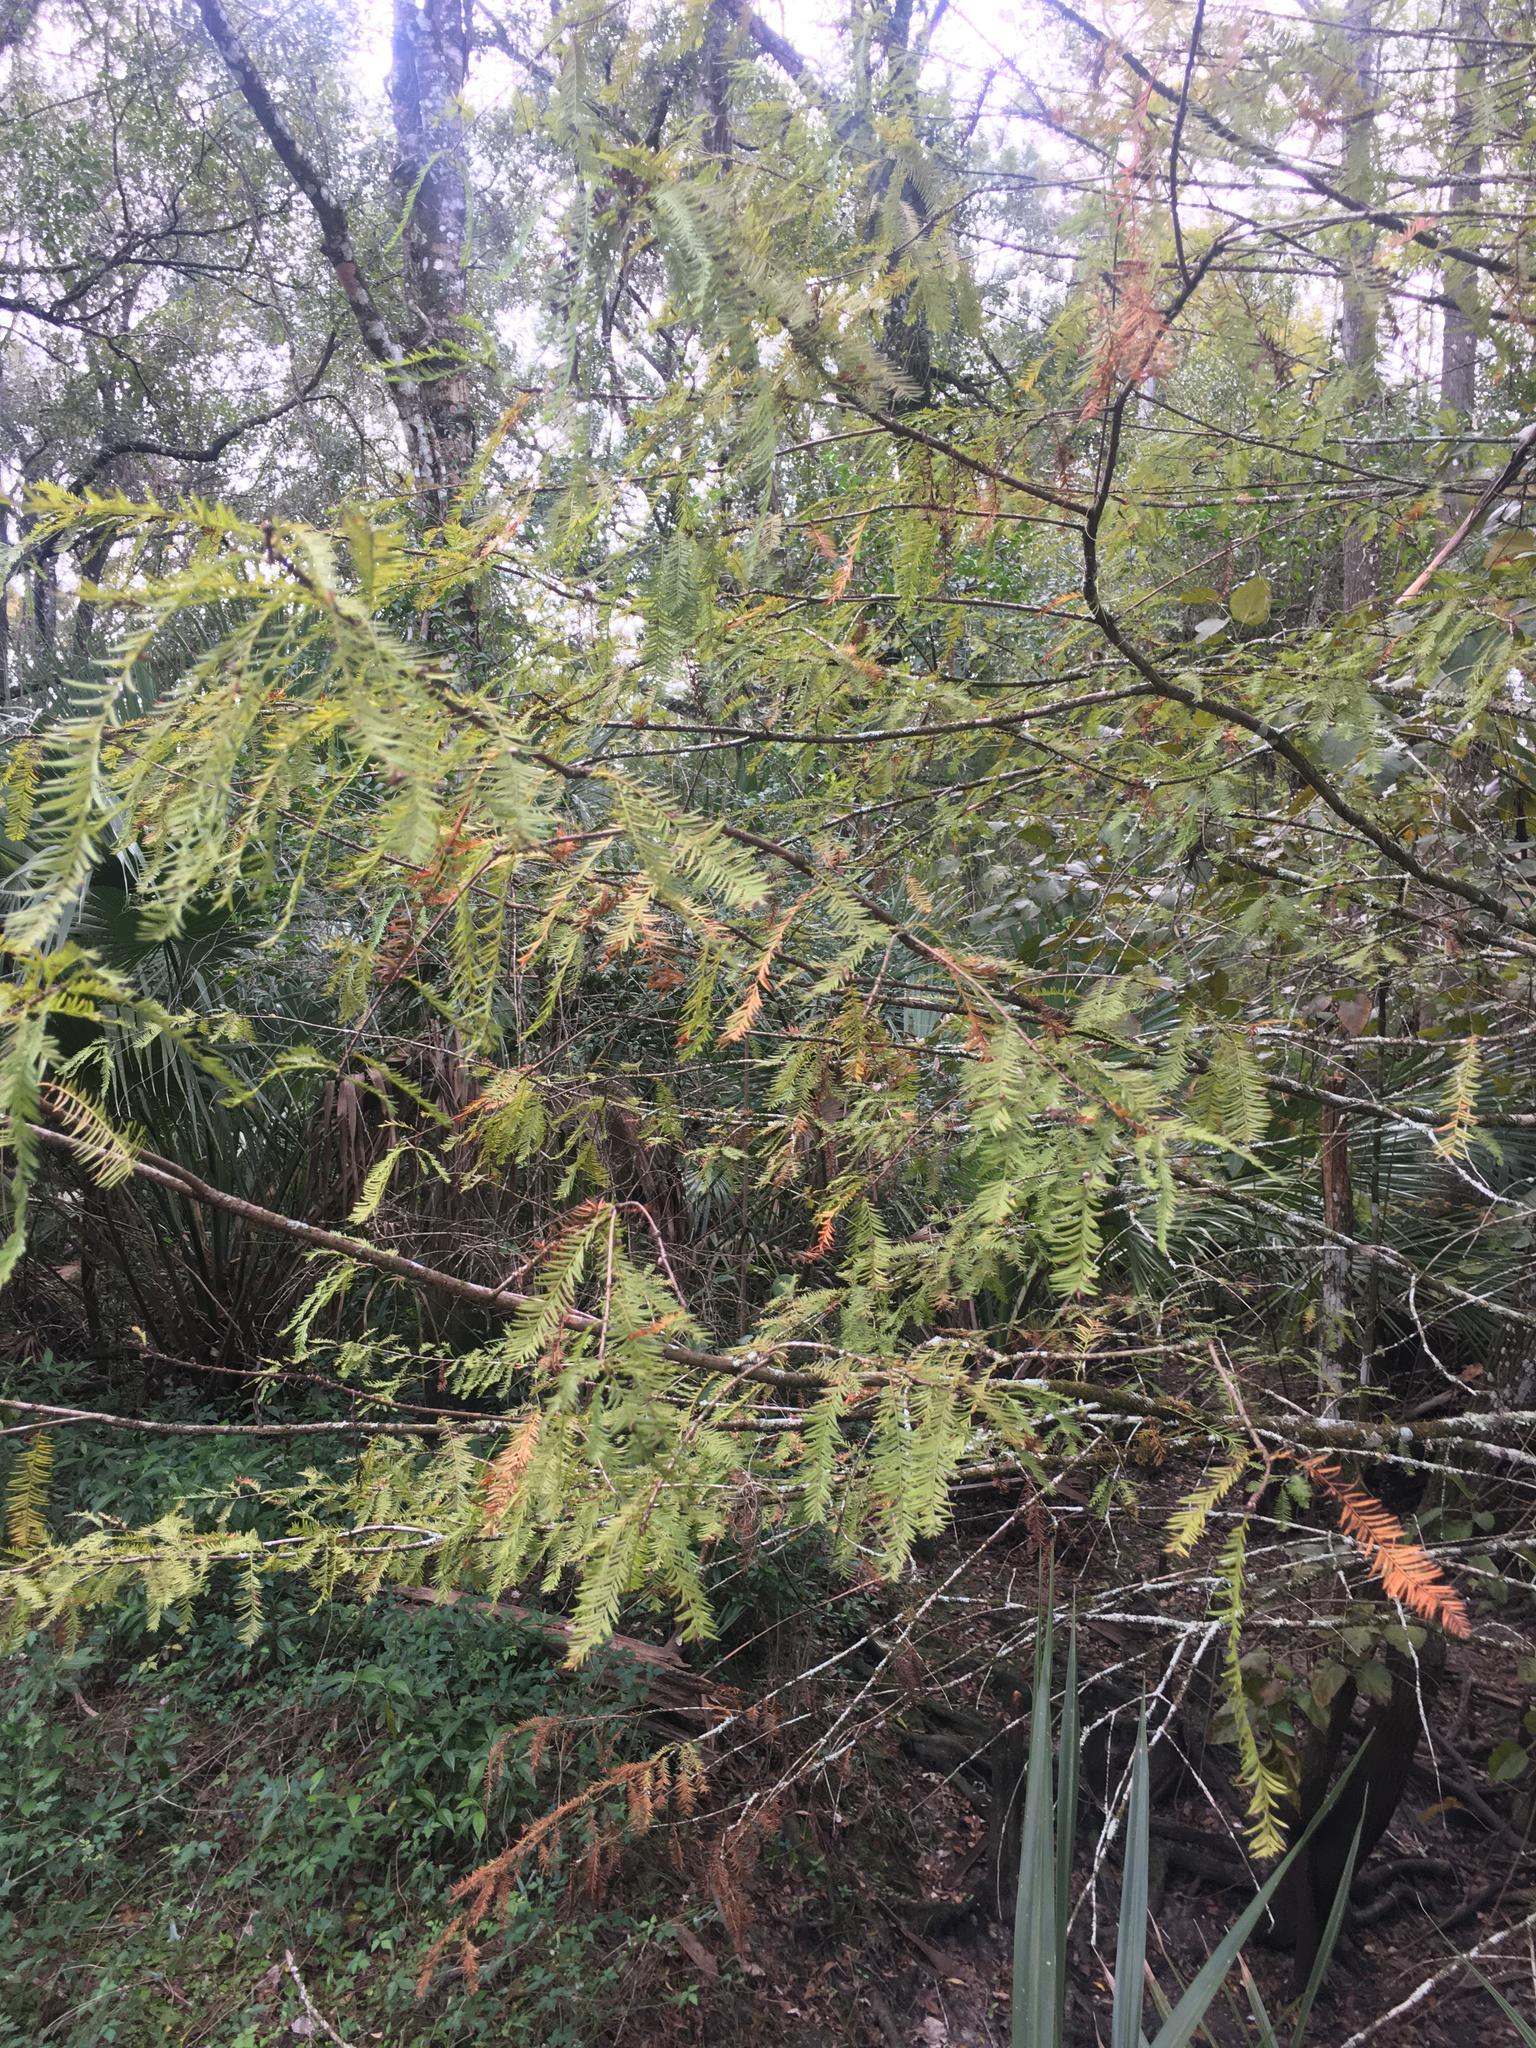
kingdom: Plantae
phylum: Tracheophyta
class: Pinopsida
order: Pinales
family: Cupressaceae
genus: Taxodium
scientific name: Taxodium distichum
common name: Bald cypress
